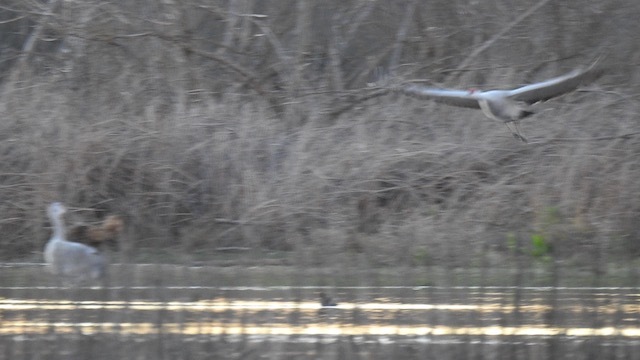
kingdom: Animalia
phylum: Chordata
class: Aves
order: Gruiformes
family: Gruidae
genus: Grus
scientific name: Grus canadensis
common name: Sandhill crane
